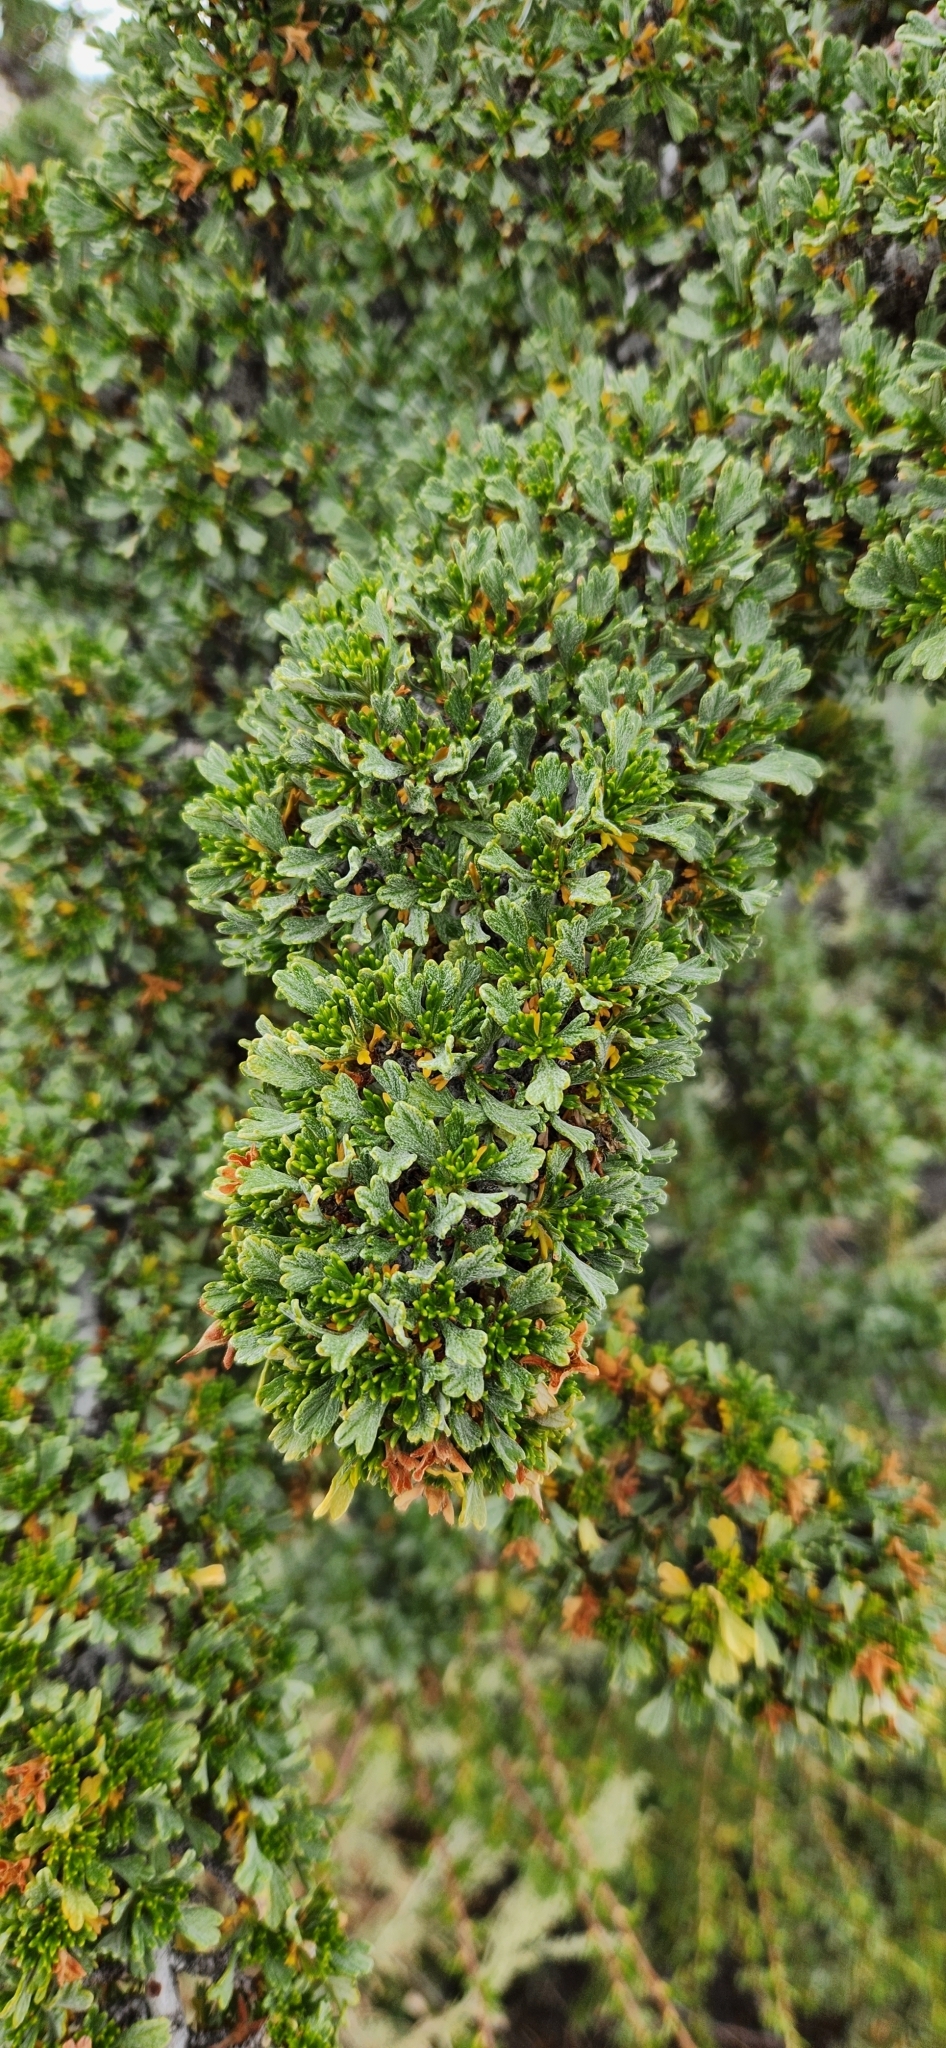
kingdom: Plantae
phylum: Tracheophyta
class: Magnoliopsida
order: Rosales
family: Rosaceae
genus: Purshia
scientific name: Purshia tridentata
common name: Antelope bitterbrush
